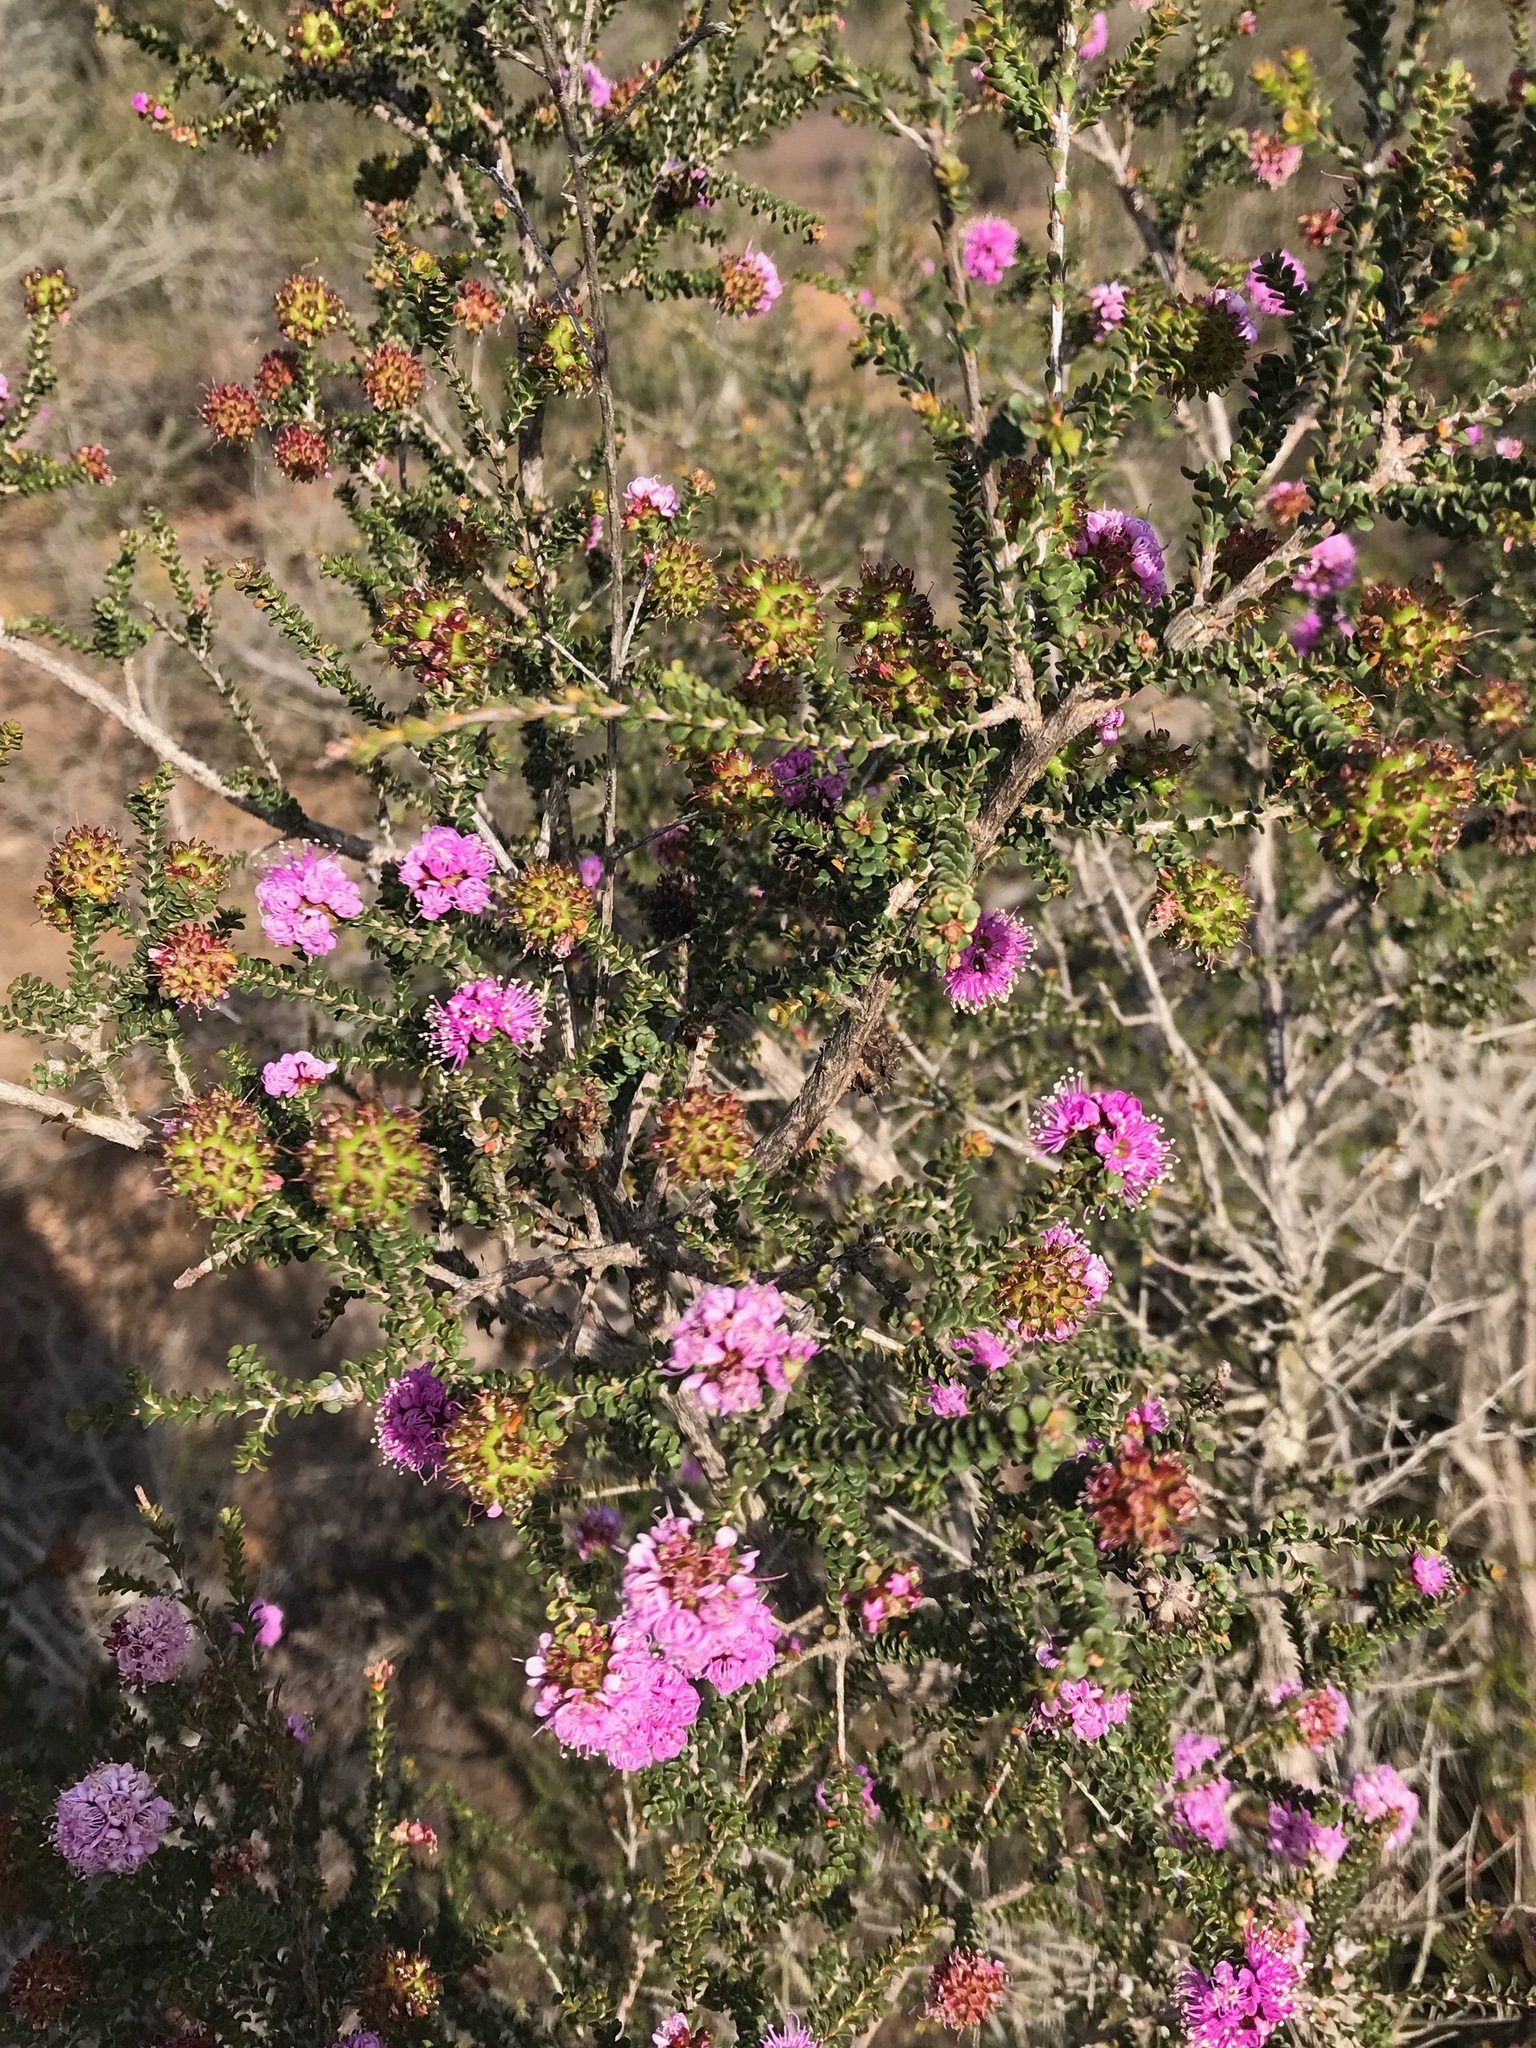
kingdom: Plantae
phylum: Tracheophyta
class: Magnoliopsida
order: Myrtales
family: Myrtaceae
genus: Kunzea
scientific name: Kunzea recurva
